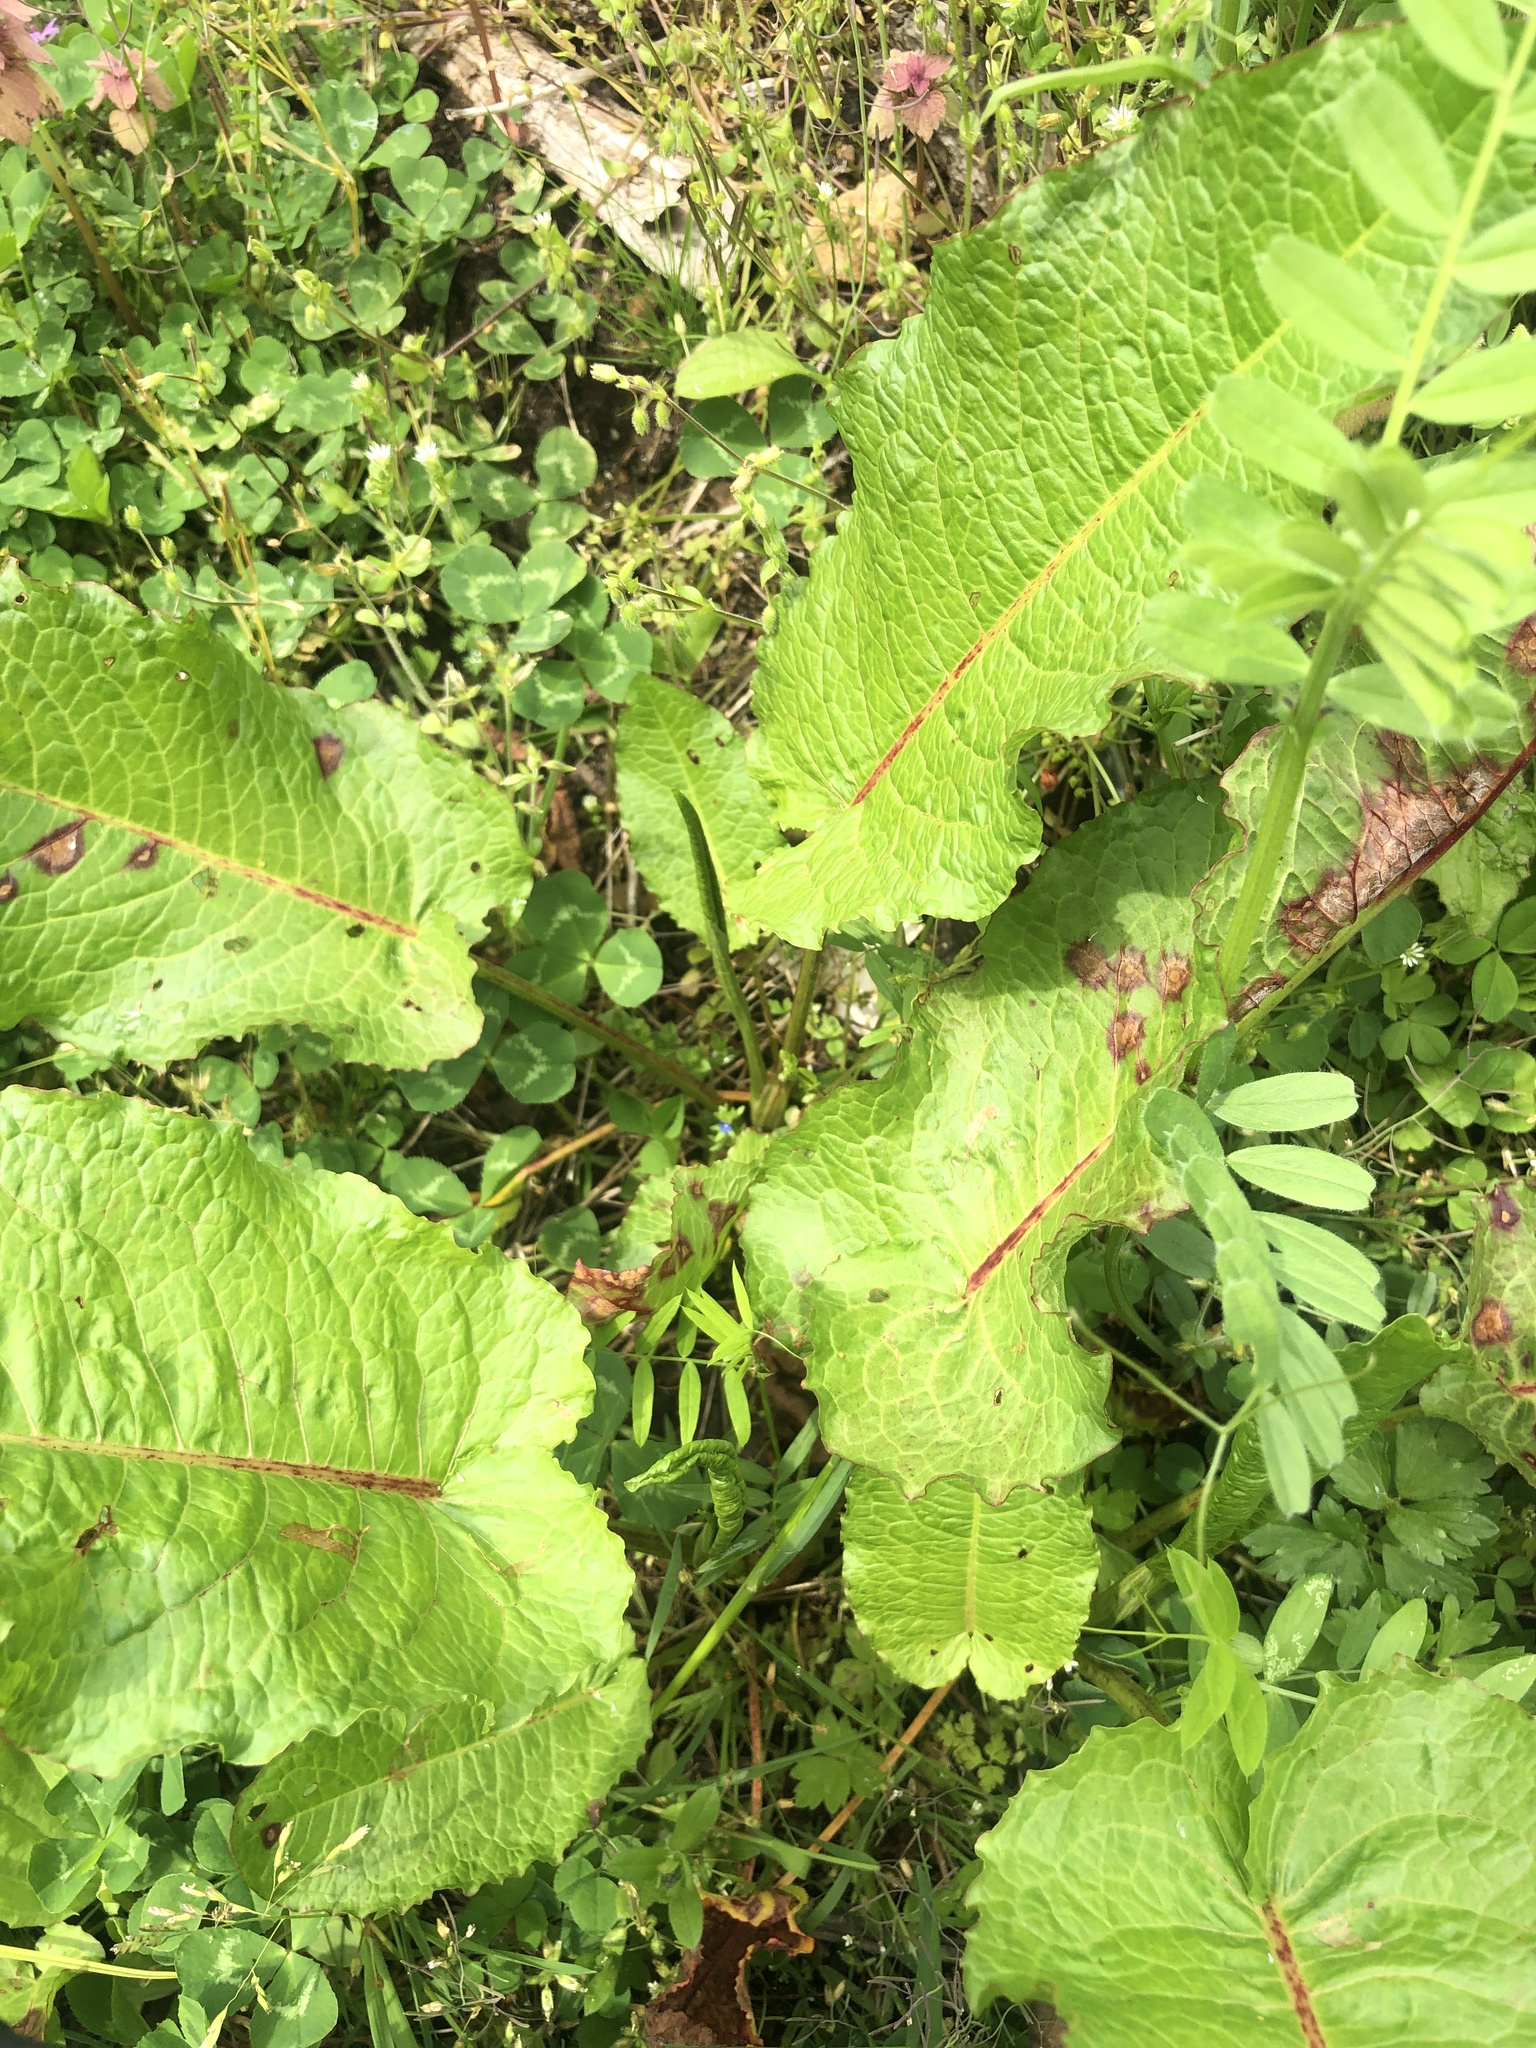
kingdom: Plantae
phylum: Tracheophyta
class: Magnoliopsida
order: Caryophyllales
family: Polygonaceae
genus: Rumex
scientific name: Rumex obtusifolius
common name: Bitter dock
